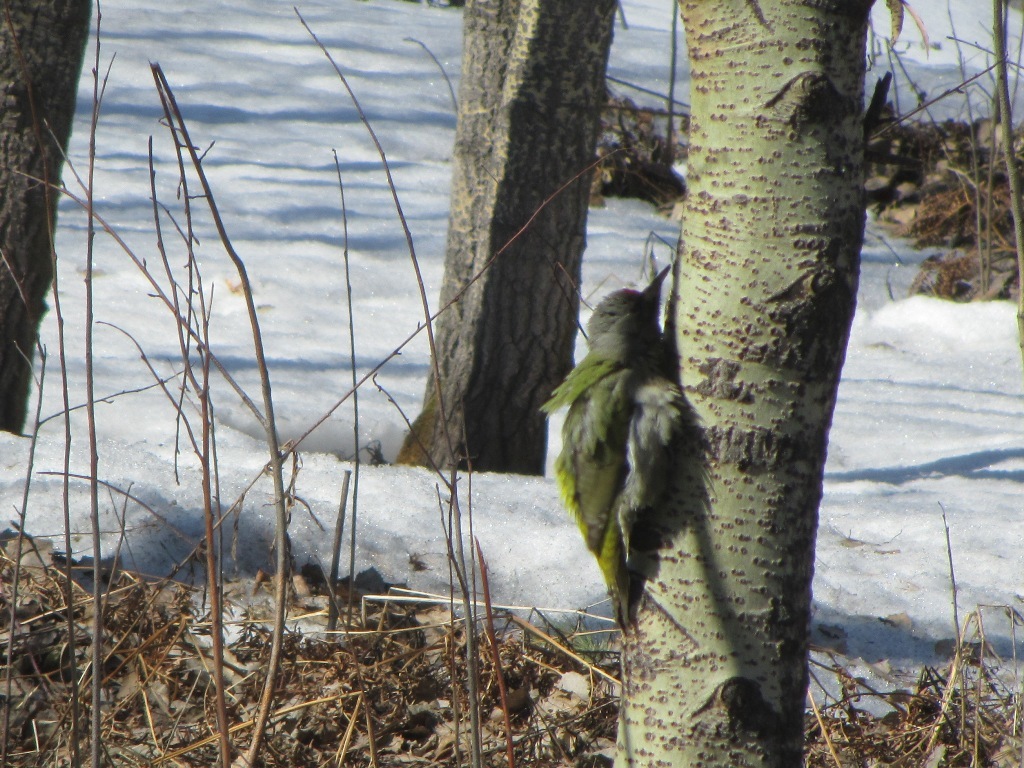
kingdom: Animalia
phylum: Chordata
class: Aves
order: Piciformes
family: Picidae
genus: Picus
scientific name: Picus canus
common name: Grey-headed woodpecker
